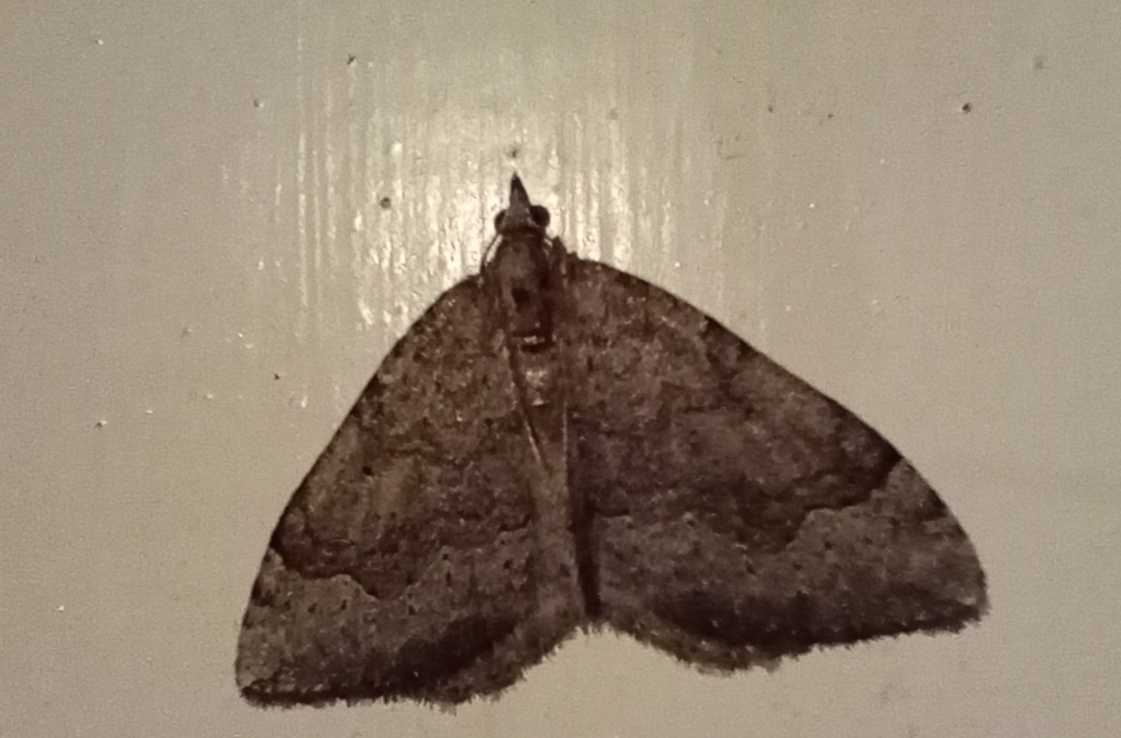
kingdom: Animalia
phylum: Arthropoda
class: Insecta
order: Lepidoptera
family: Geometridae
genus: Epyaxa
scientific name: Epyaxa rosearia
